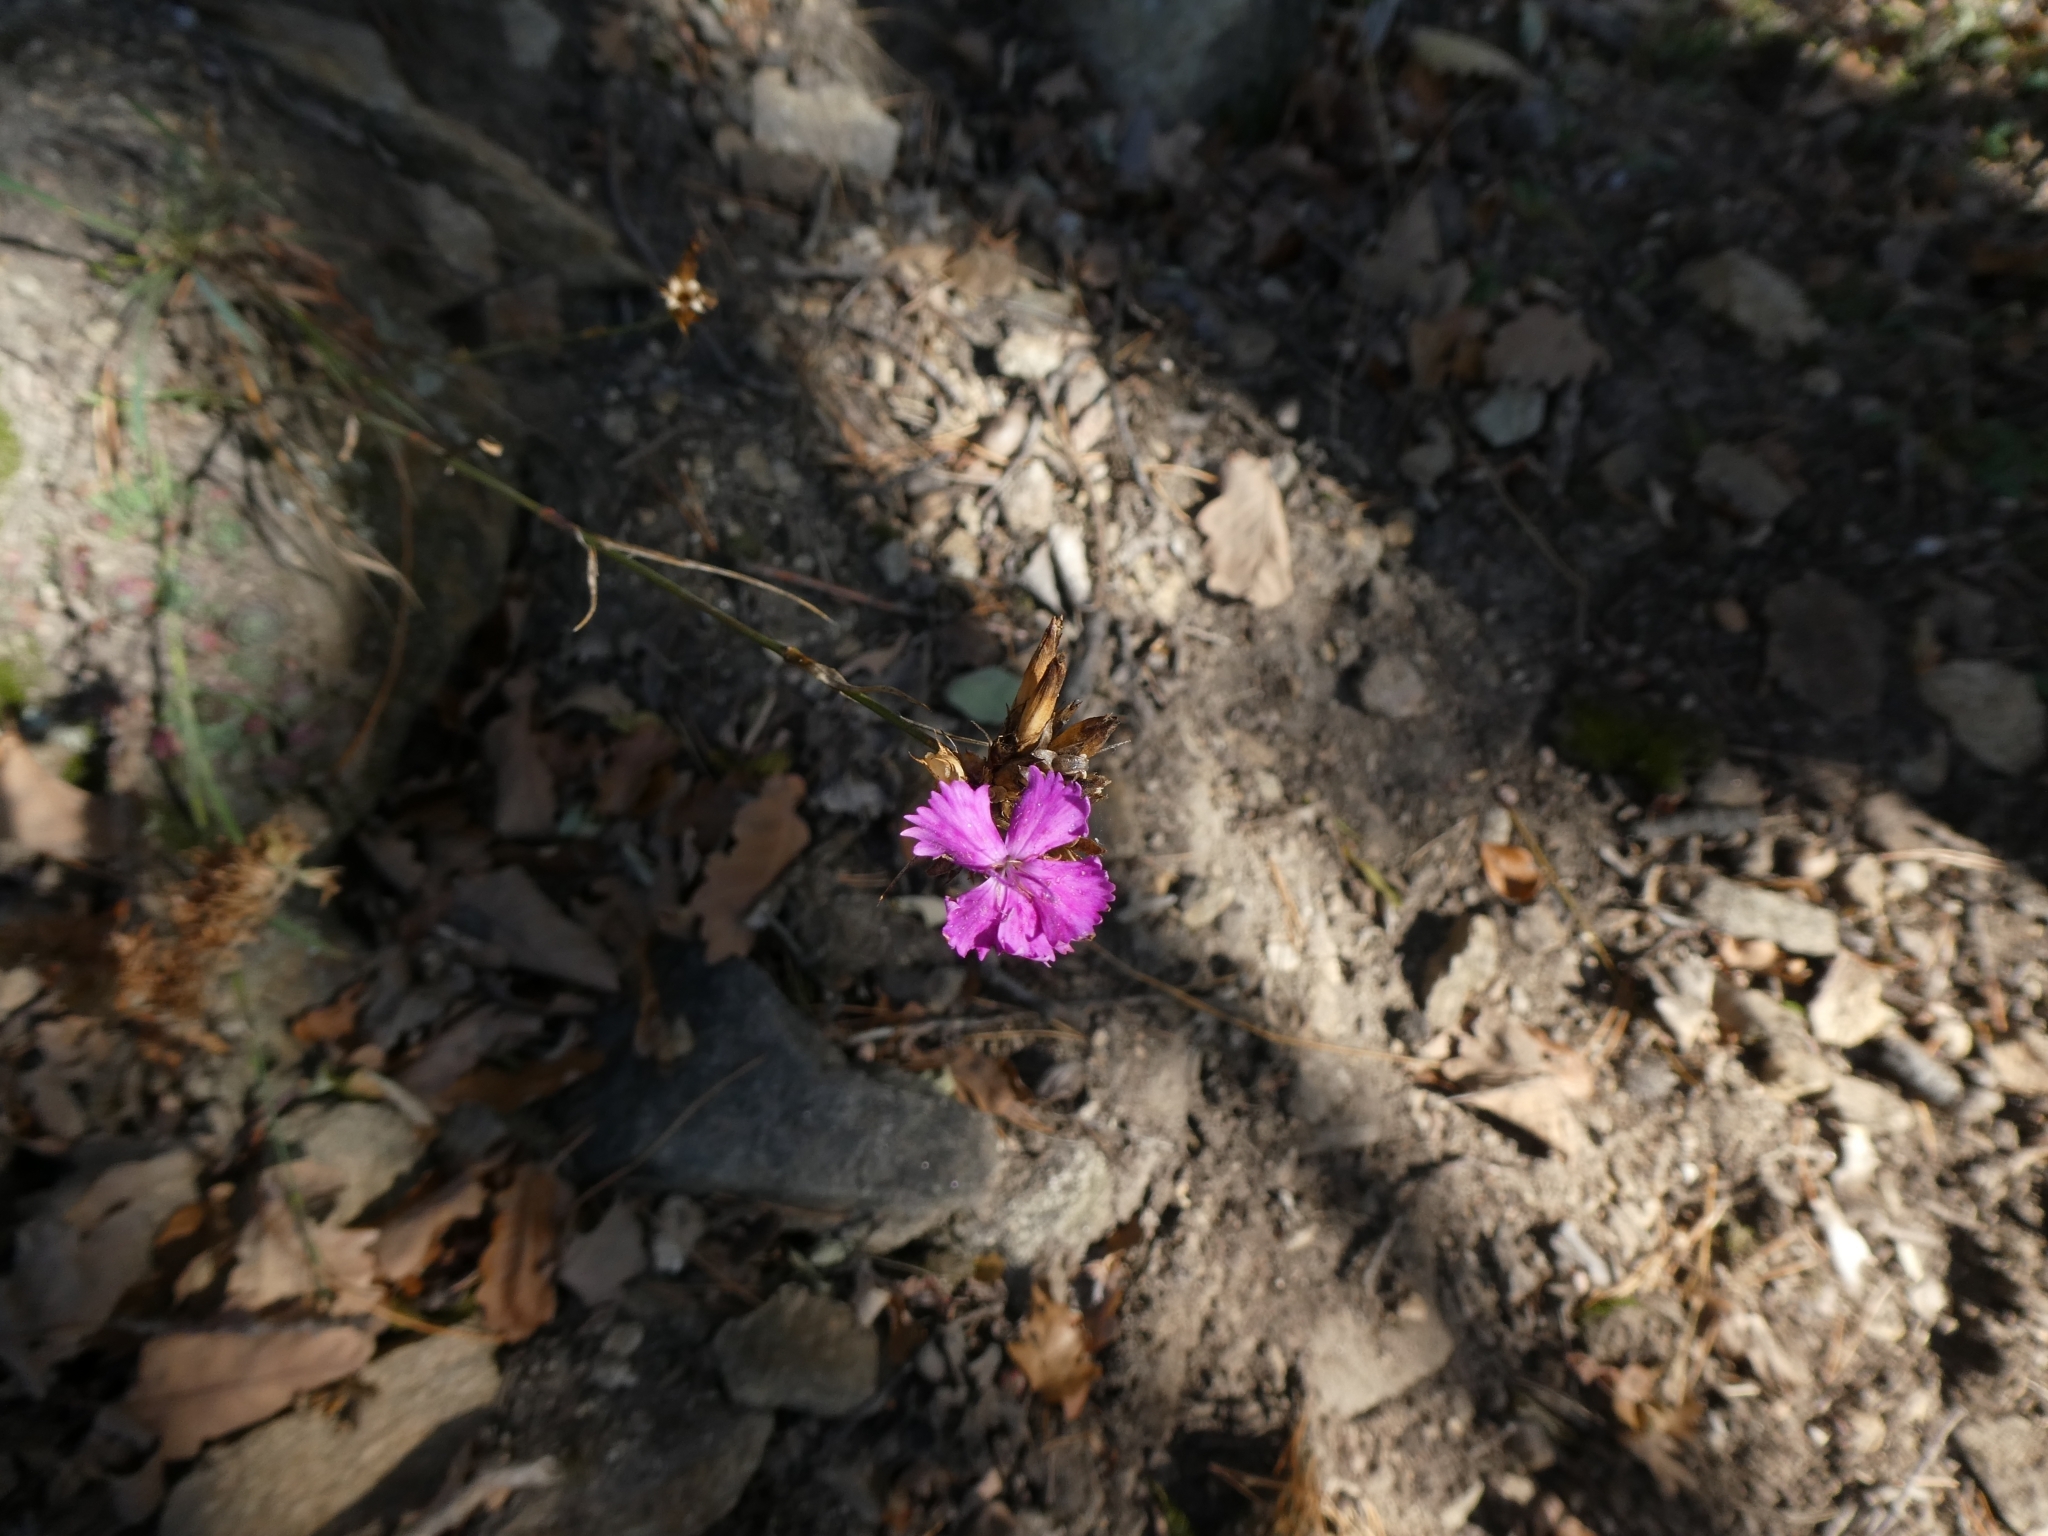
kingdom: Plantae
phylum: Tracheophyta
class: Magnoliopsida
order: Caryophyllales
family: Caryophyllaceae
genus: Dianthus
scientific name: Dianthus carthusianorum
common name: Carthusian pink
